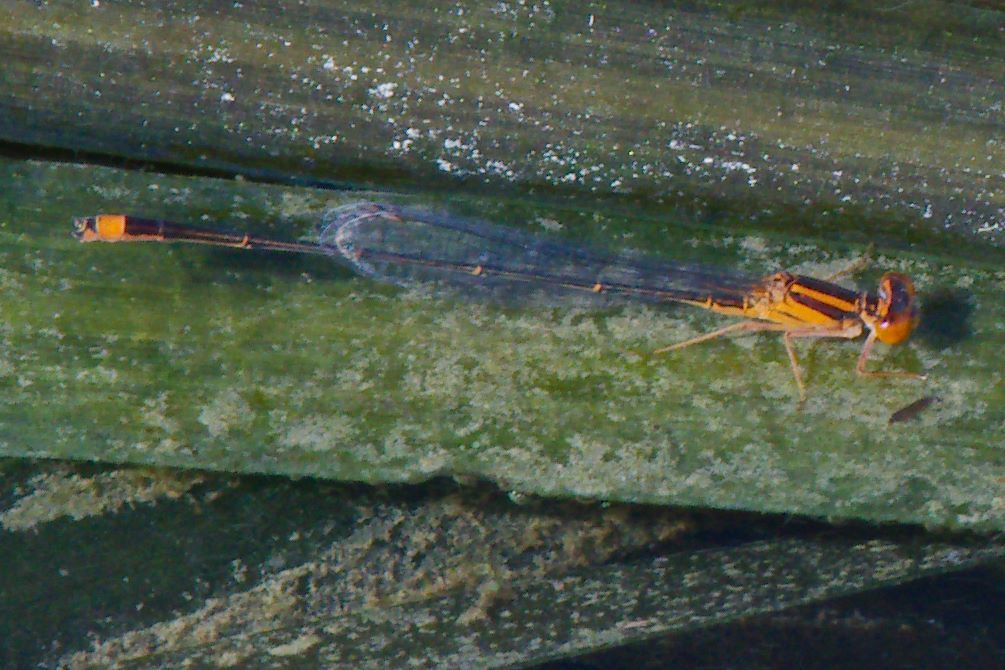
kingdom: Animalia
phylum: Arthropoda
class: Insecta
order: Odonata
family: Coenagrionidae
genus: Enallagma
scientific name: Enallagma pollutum
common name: Florida bluet
